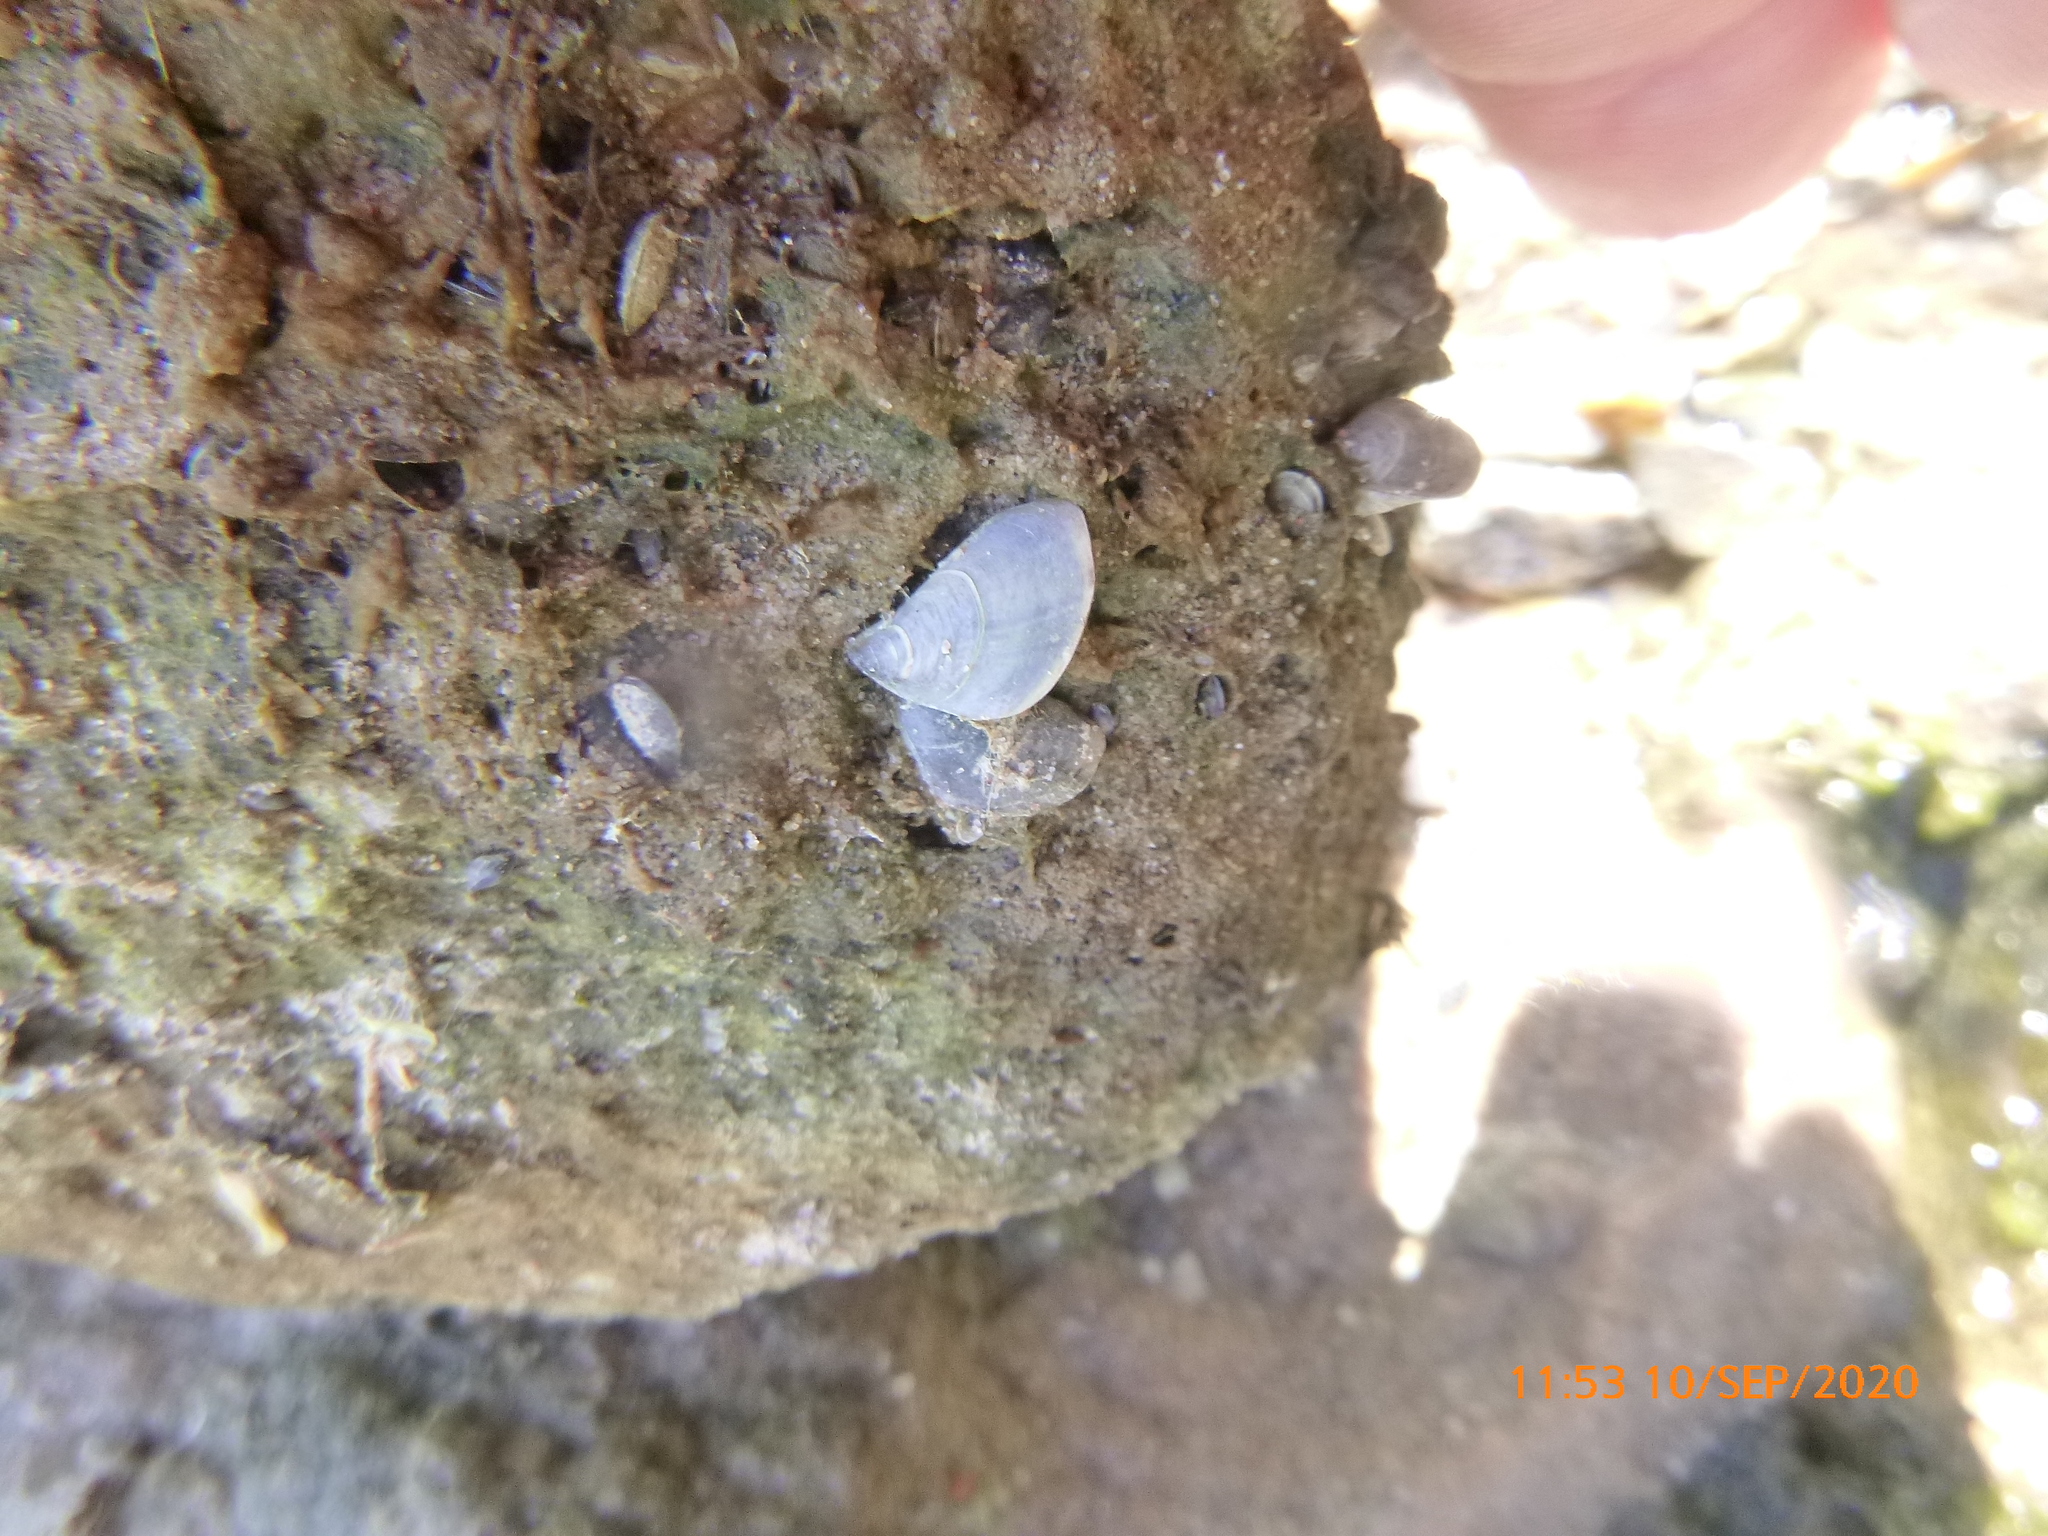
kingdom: Animalia
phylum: Mollusca
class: Bivalvia
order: Myida
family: Dreissenidae
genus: Dreissena
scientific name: Dreissena bugensis
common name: Quagga mussel
